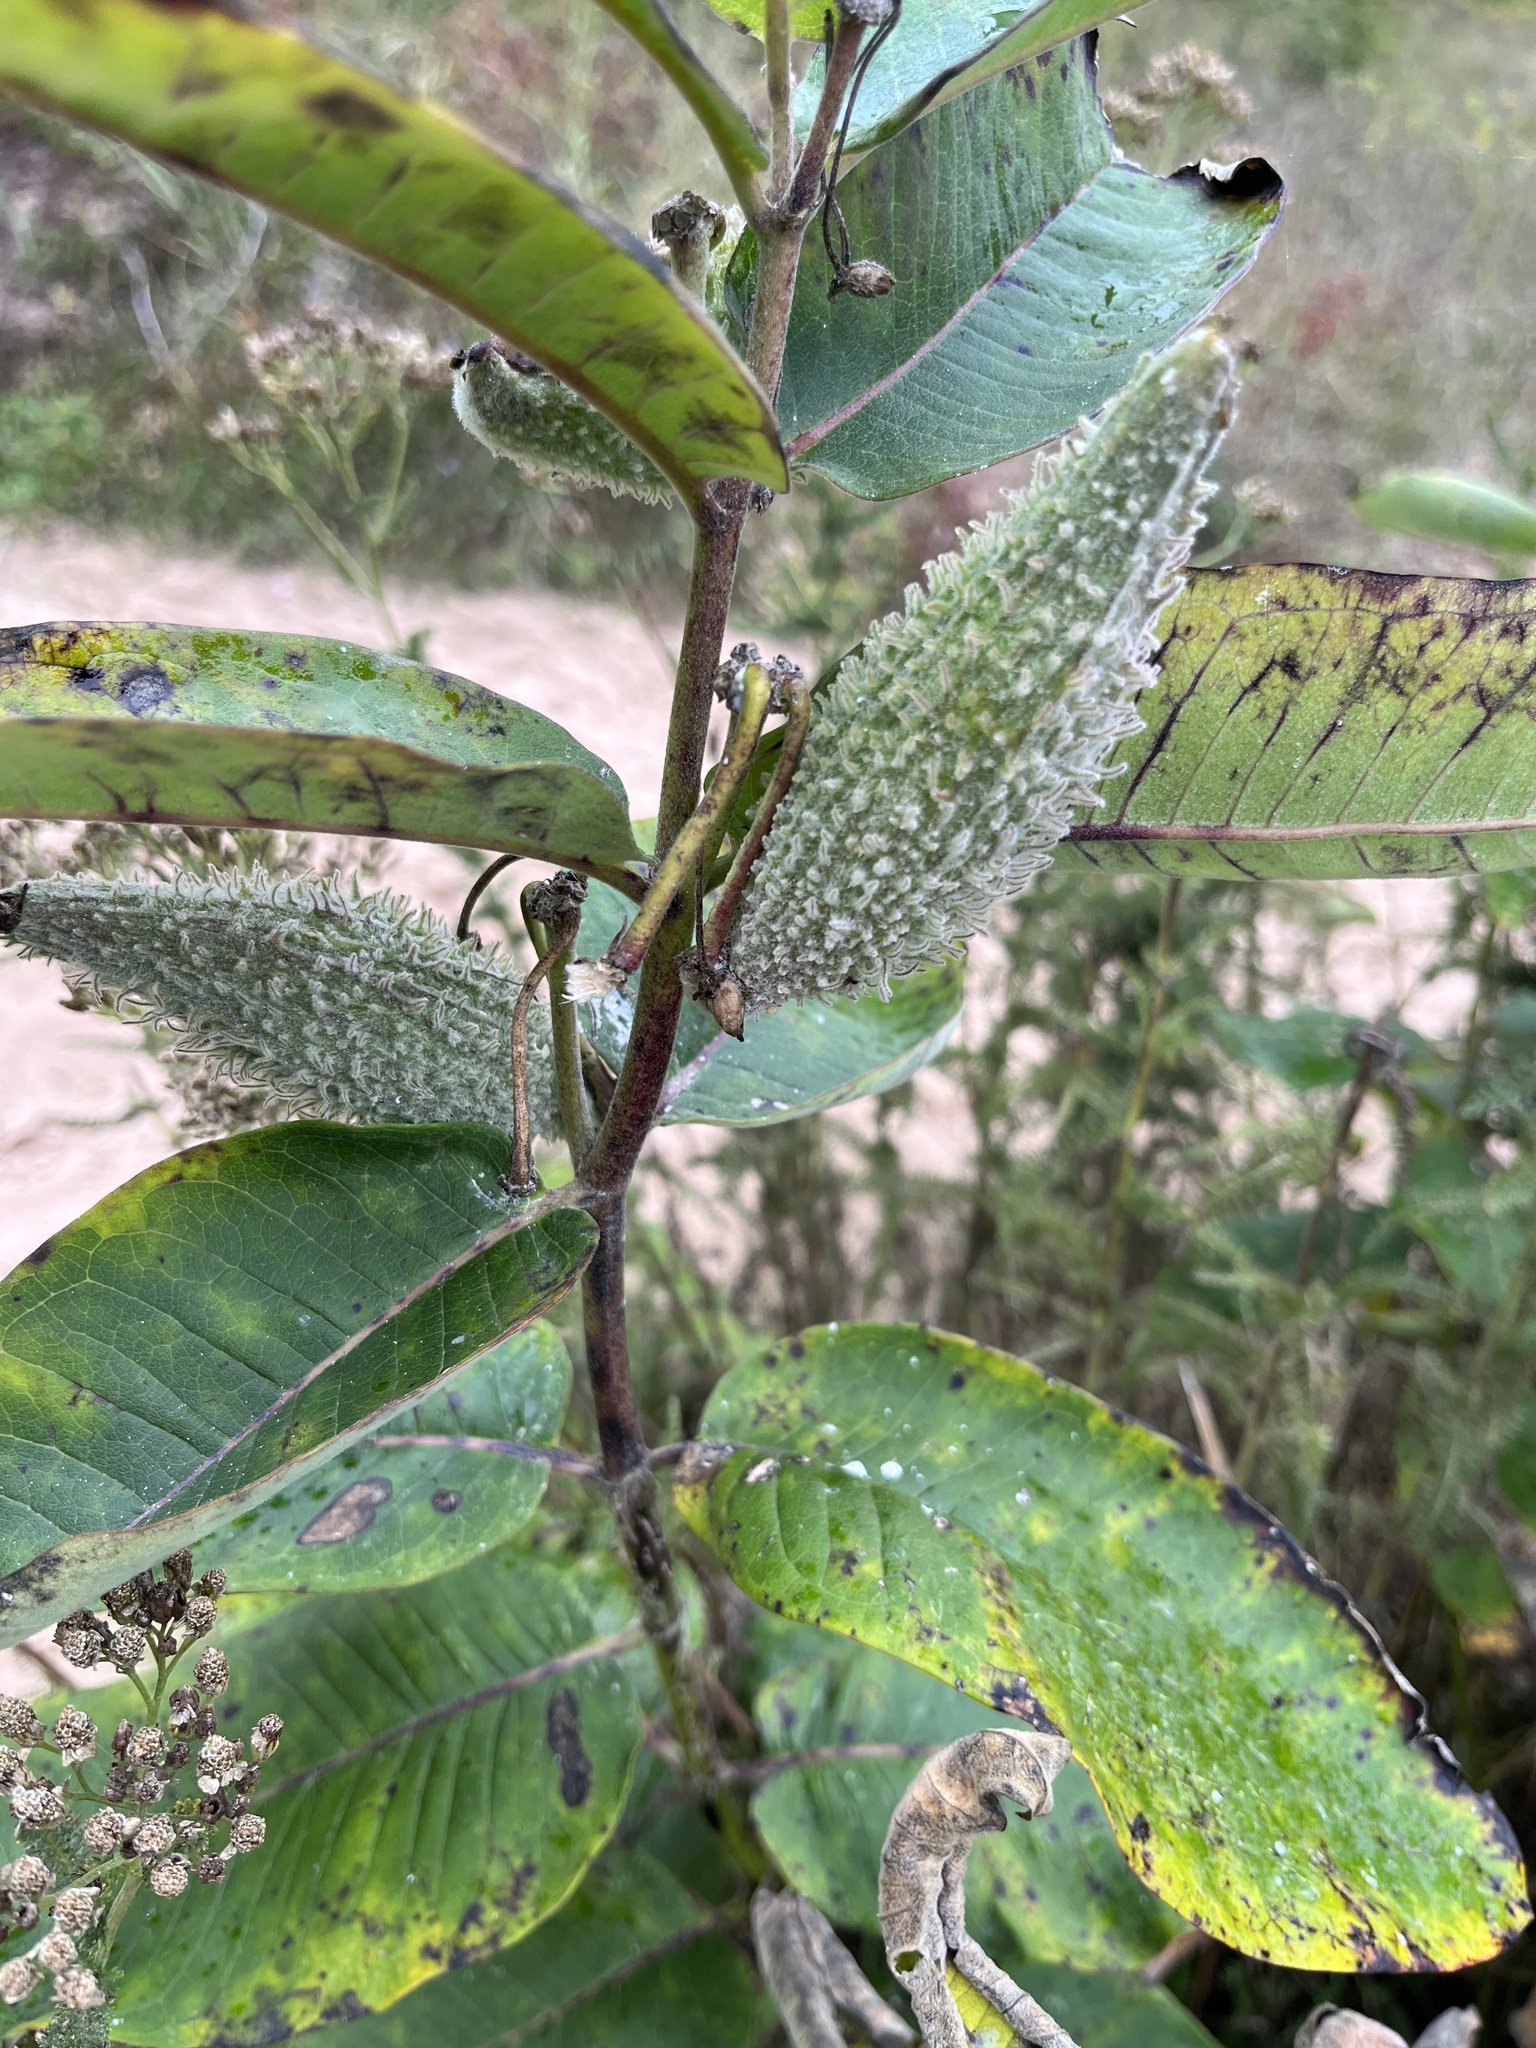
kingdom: Plantae
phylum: Tracheophyta
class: Magnoliopsida
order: Gentianales
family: Apocynaceae
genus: Asclepias
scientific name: Asclepias syriaca
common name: Common milkweed
